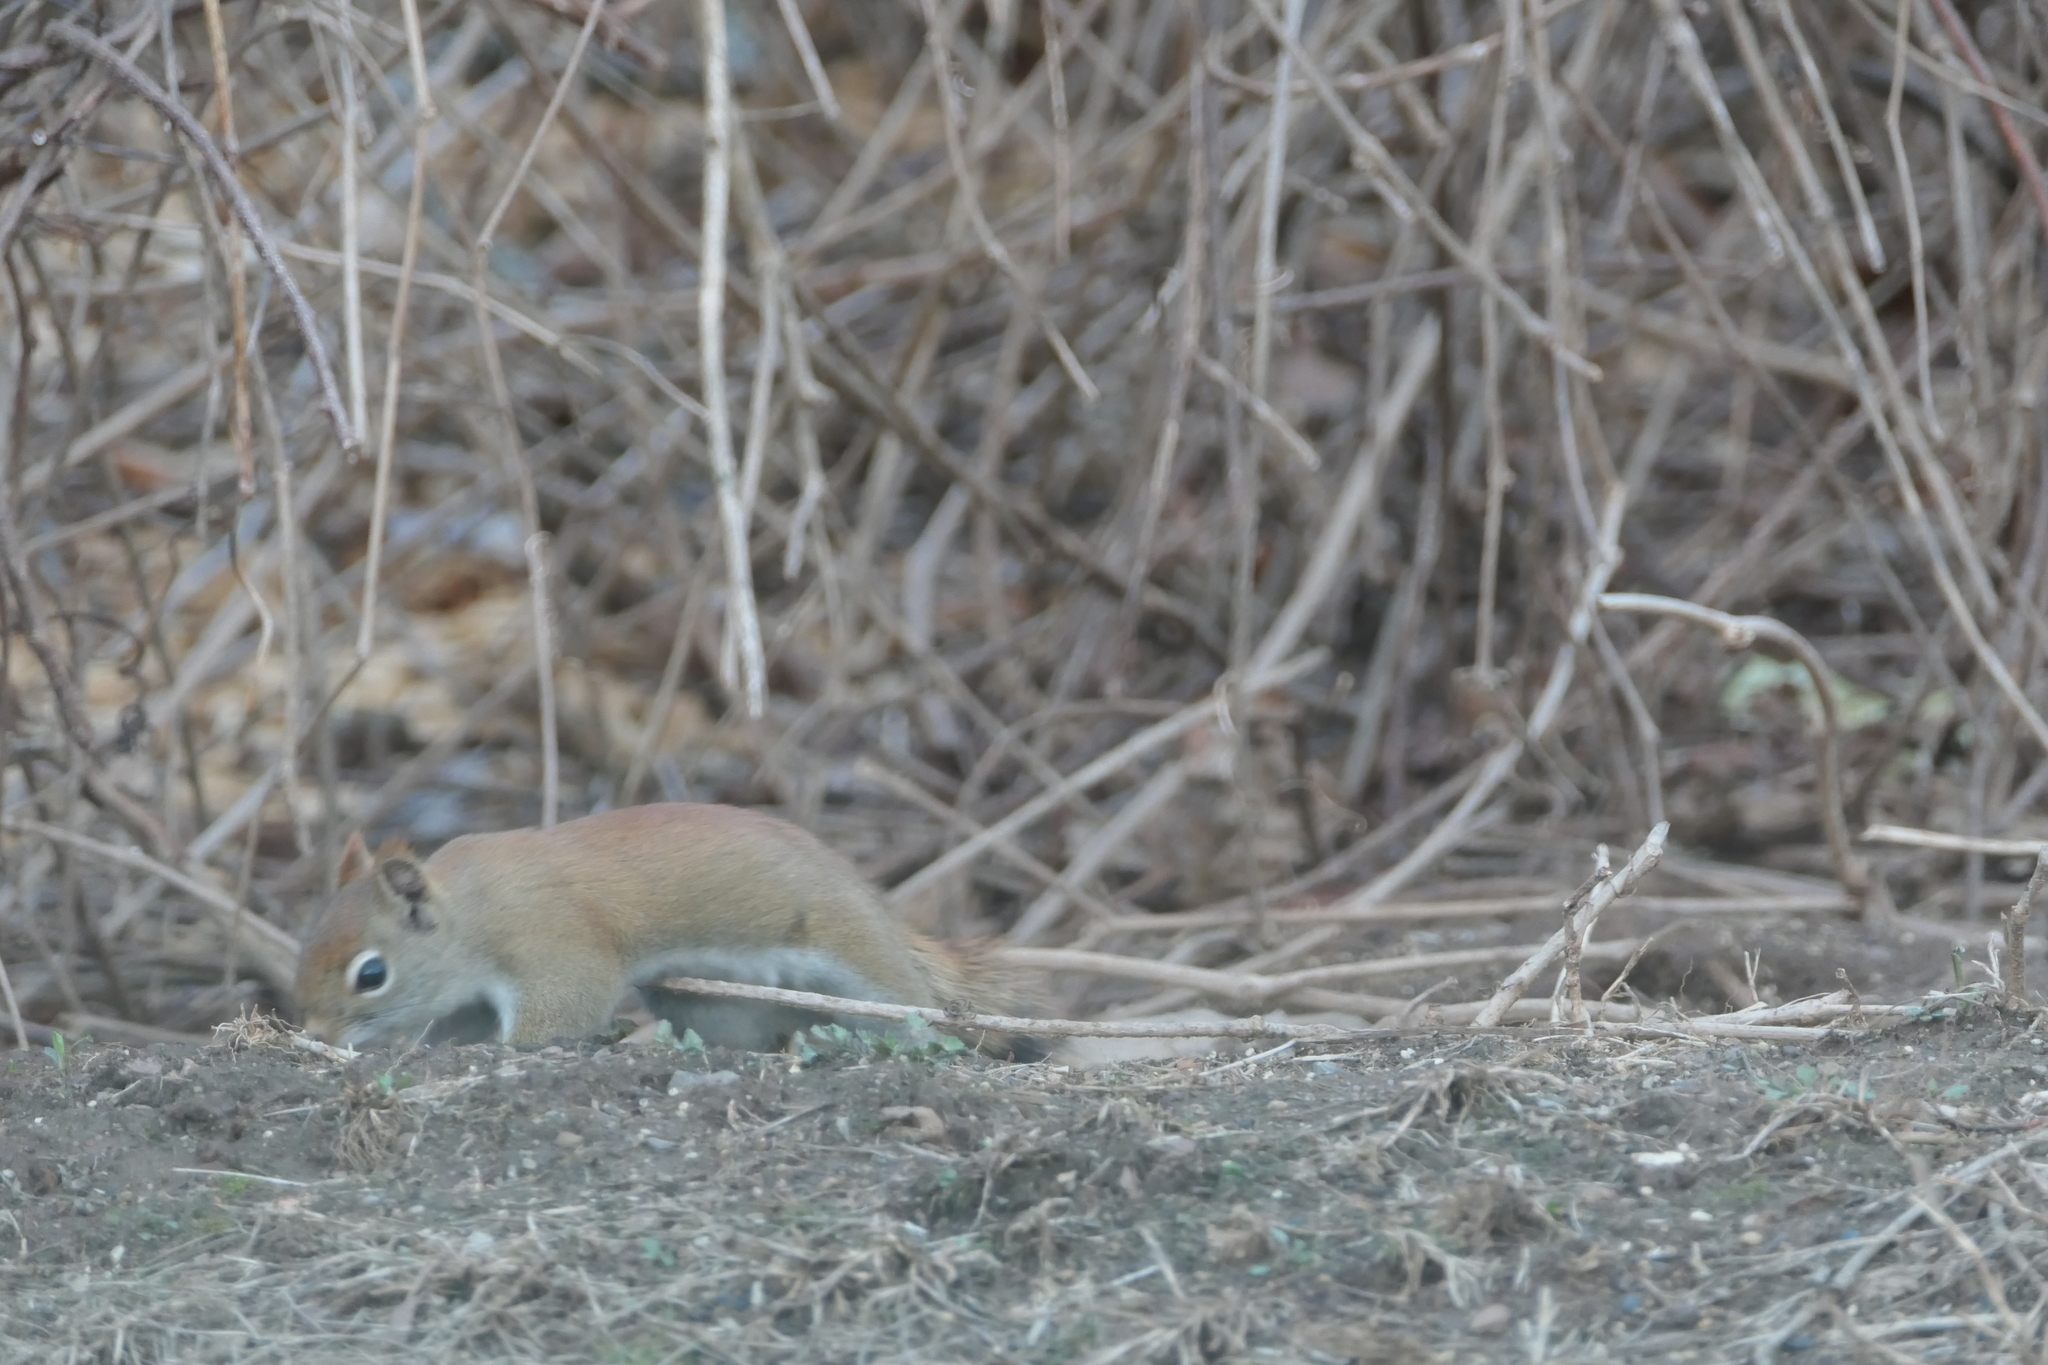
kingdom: Animalia
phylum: Chordata
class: Mammalia
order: Rodentia
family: Sciuridae
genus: Tamiasciurus
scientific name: Tamiasciurus hudsonicus
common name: Red squirrel
